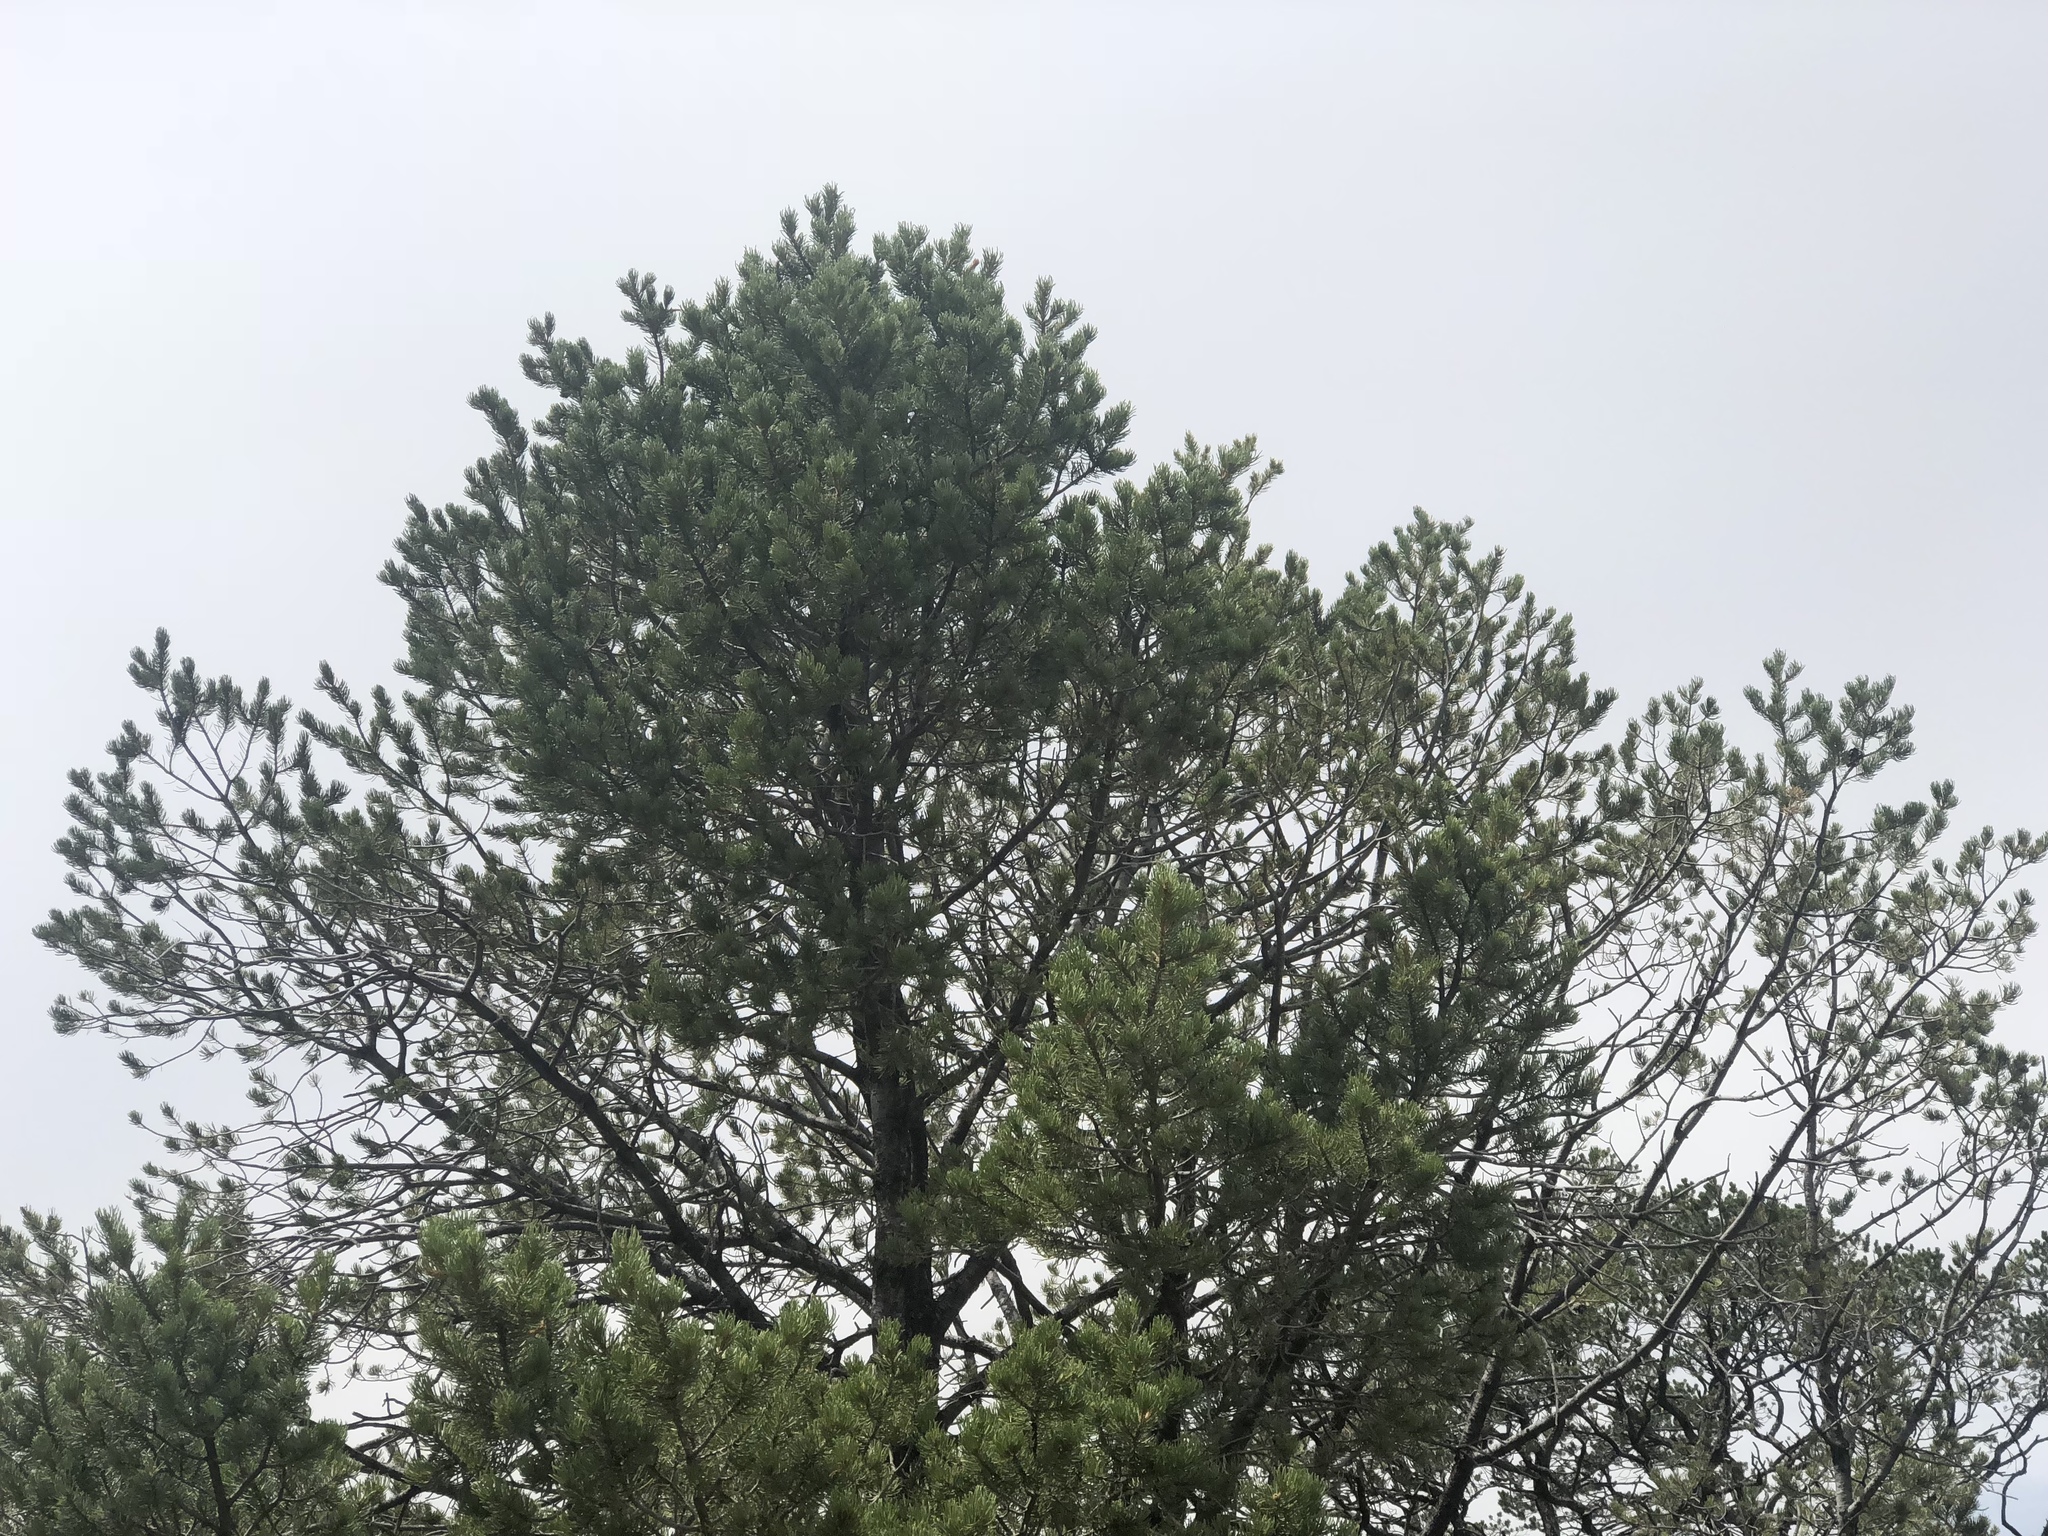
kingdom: Plantae
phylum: Tracheophyta
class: Pinopsida
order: Pinales
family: Pinaceae
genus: Pinus
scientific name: Pinus edulis
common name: Colorado pinyon
